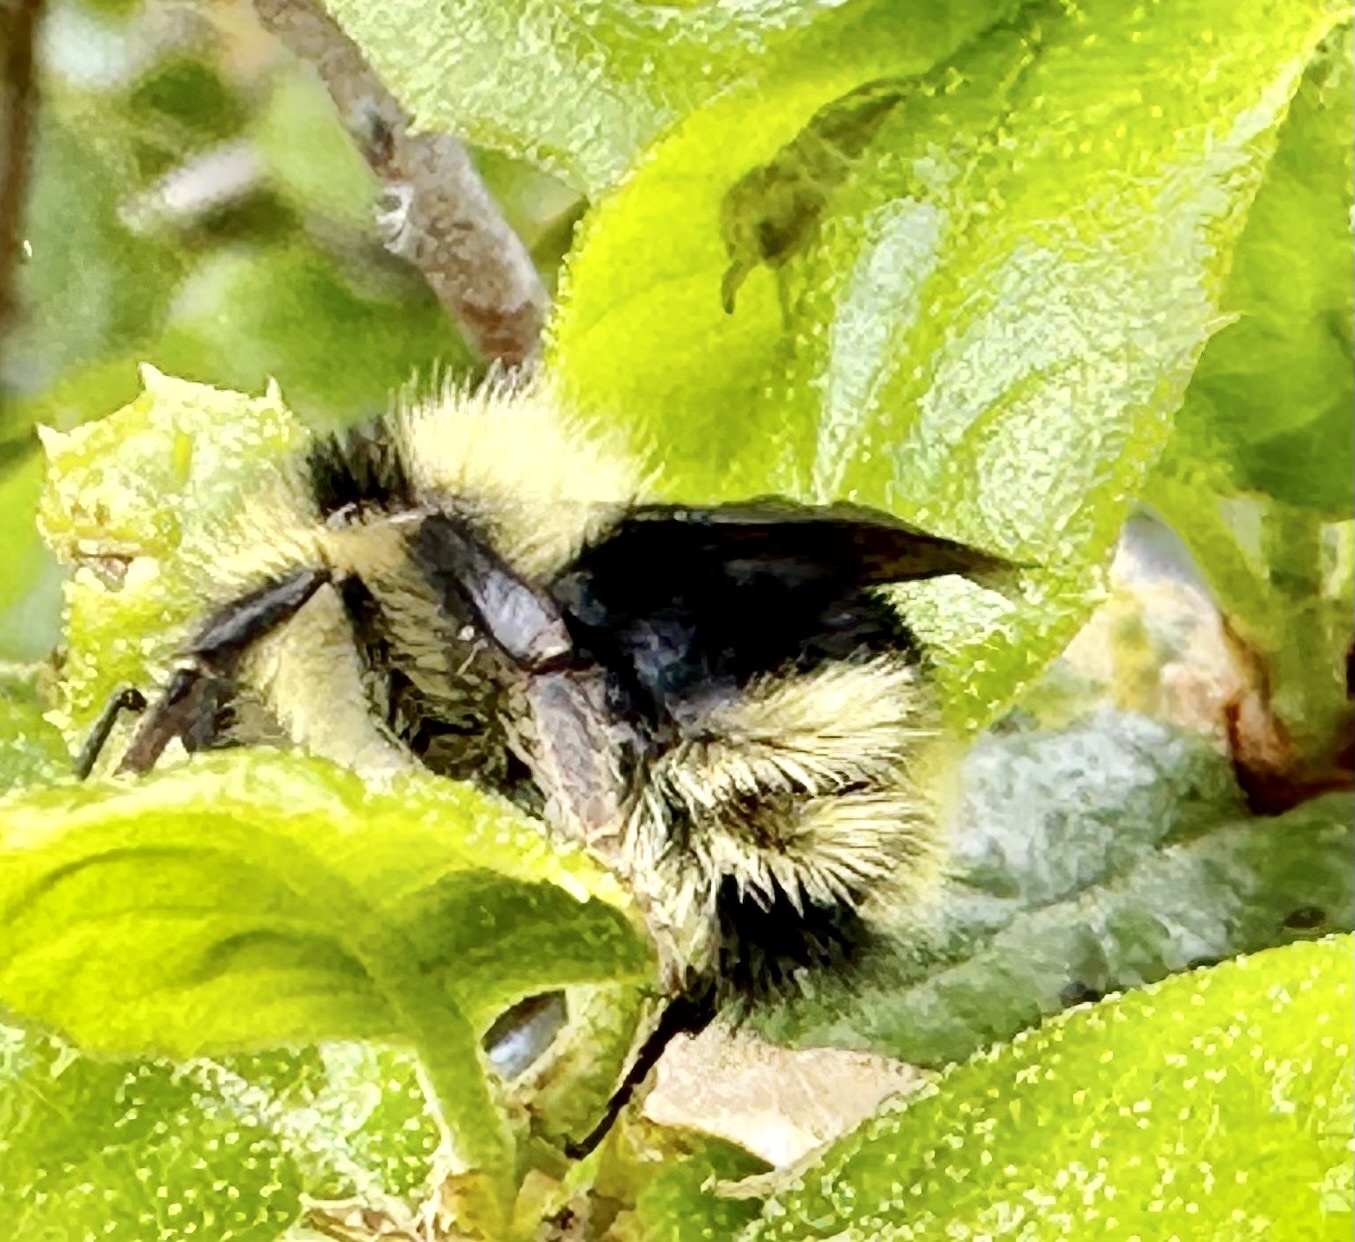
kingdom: Animalia
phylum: Arthropoda
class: Insecta
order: Hymenoptera
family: Apidae
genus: Bombus
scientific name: Bombus melanopygus
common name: Black tail bumble bee
